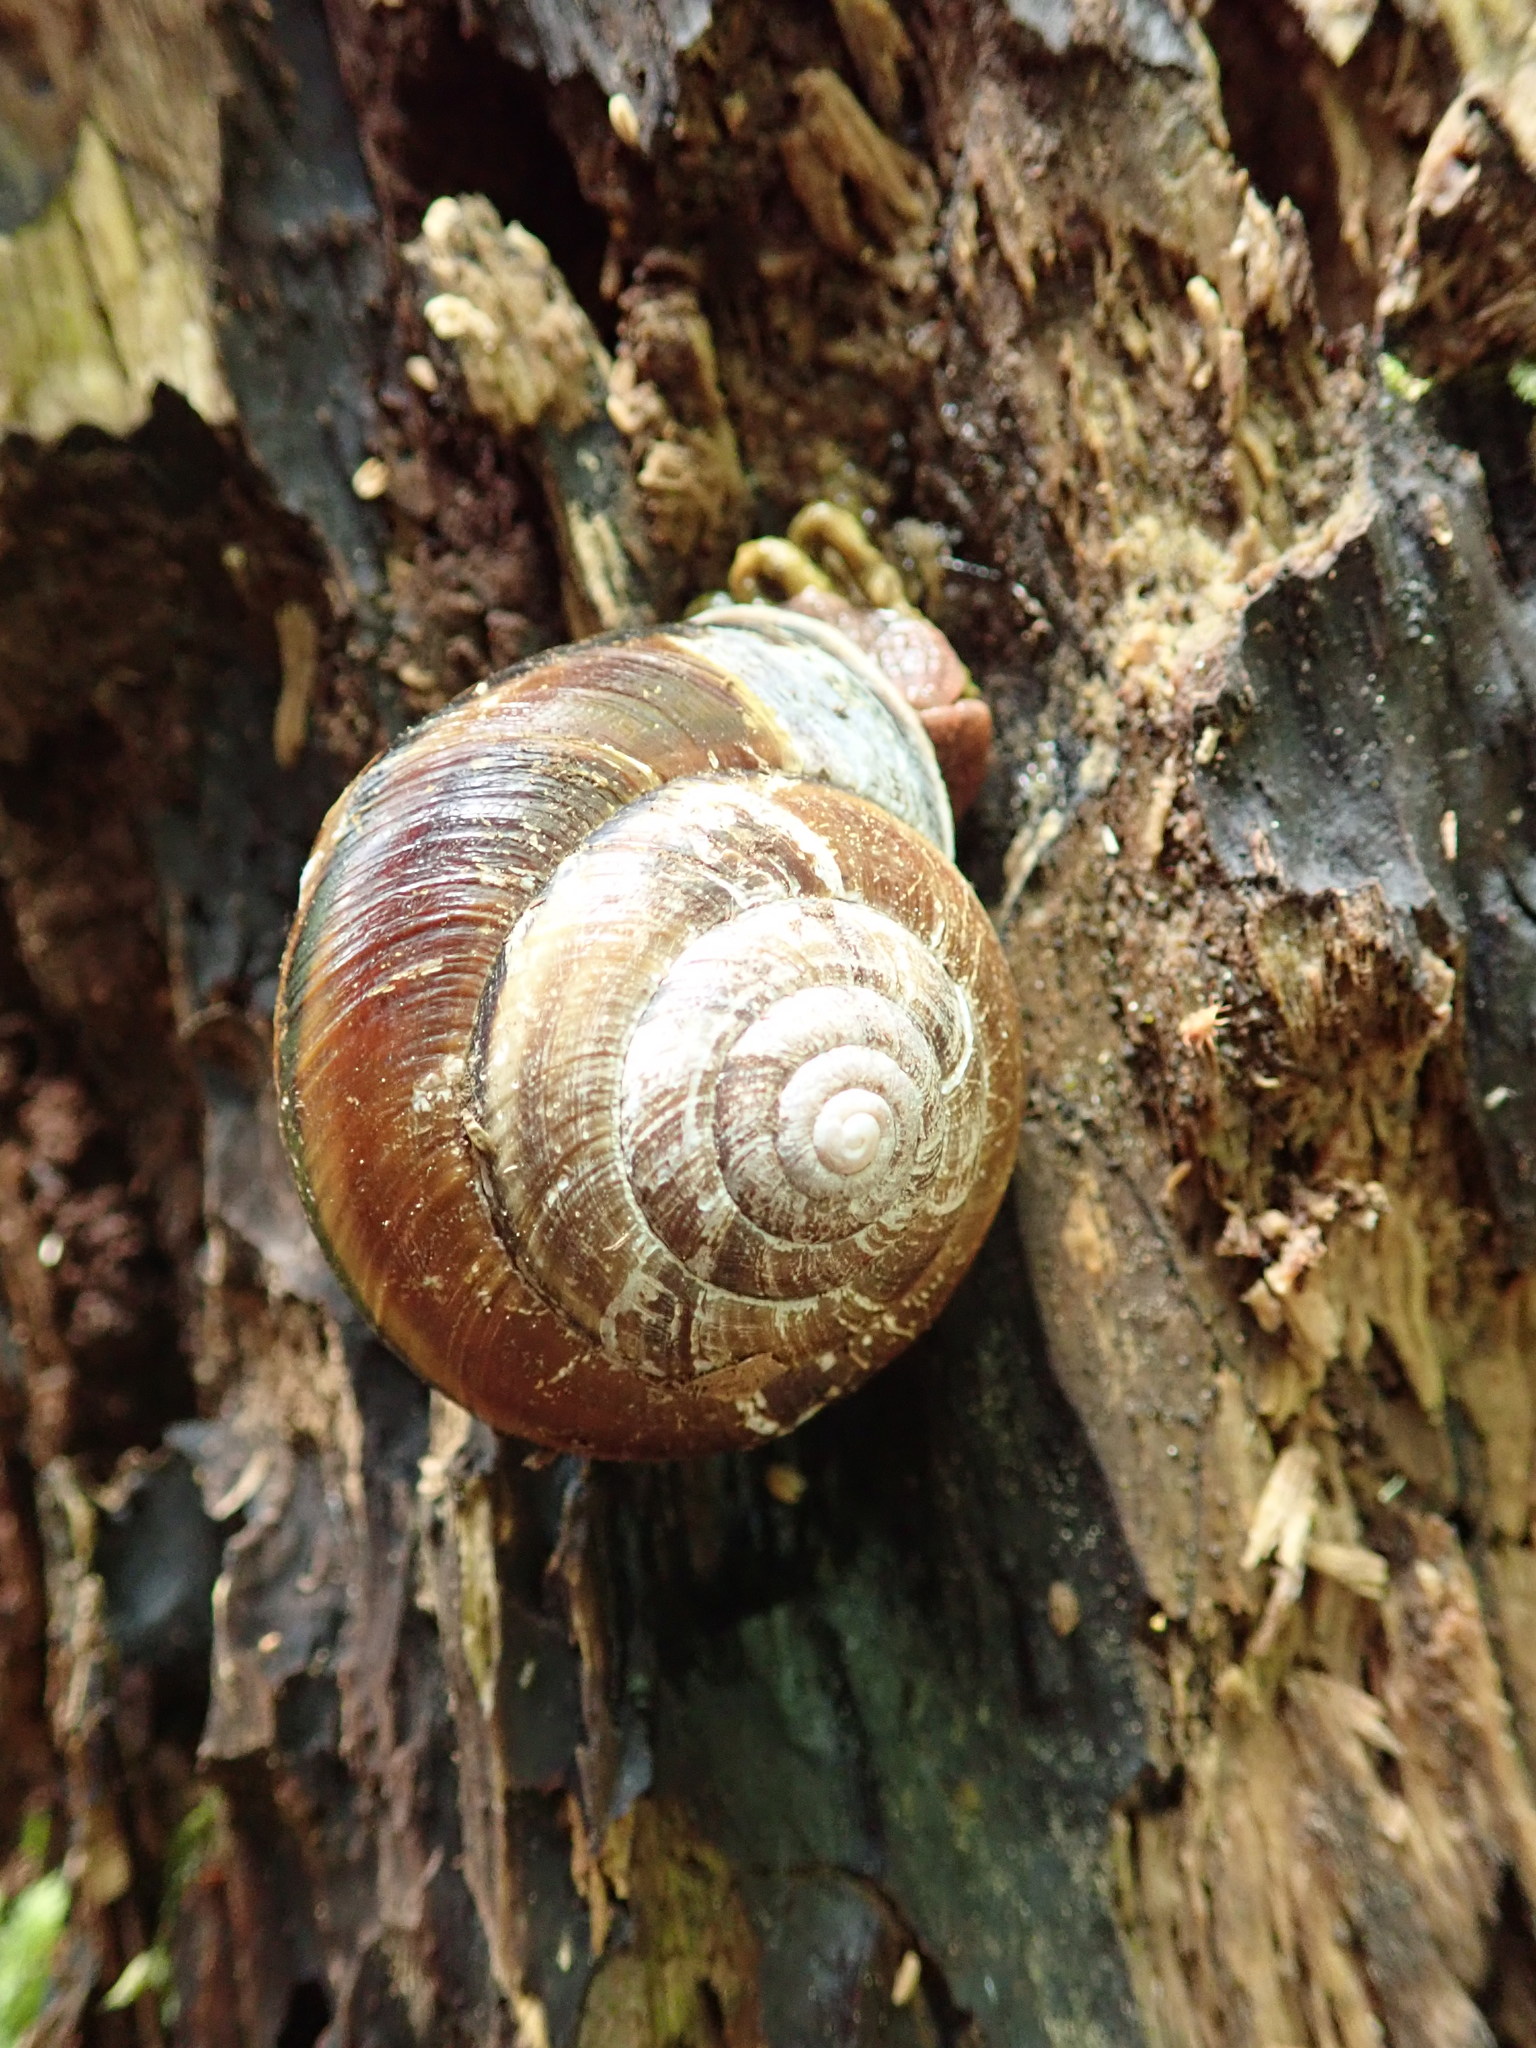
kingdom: Animalia
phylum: Mollusca
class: Gastropoda
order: Stylommatophora
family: Xanthonychidae
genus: Monadenia
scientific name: Monadenia fidelis
